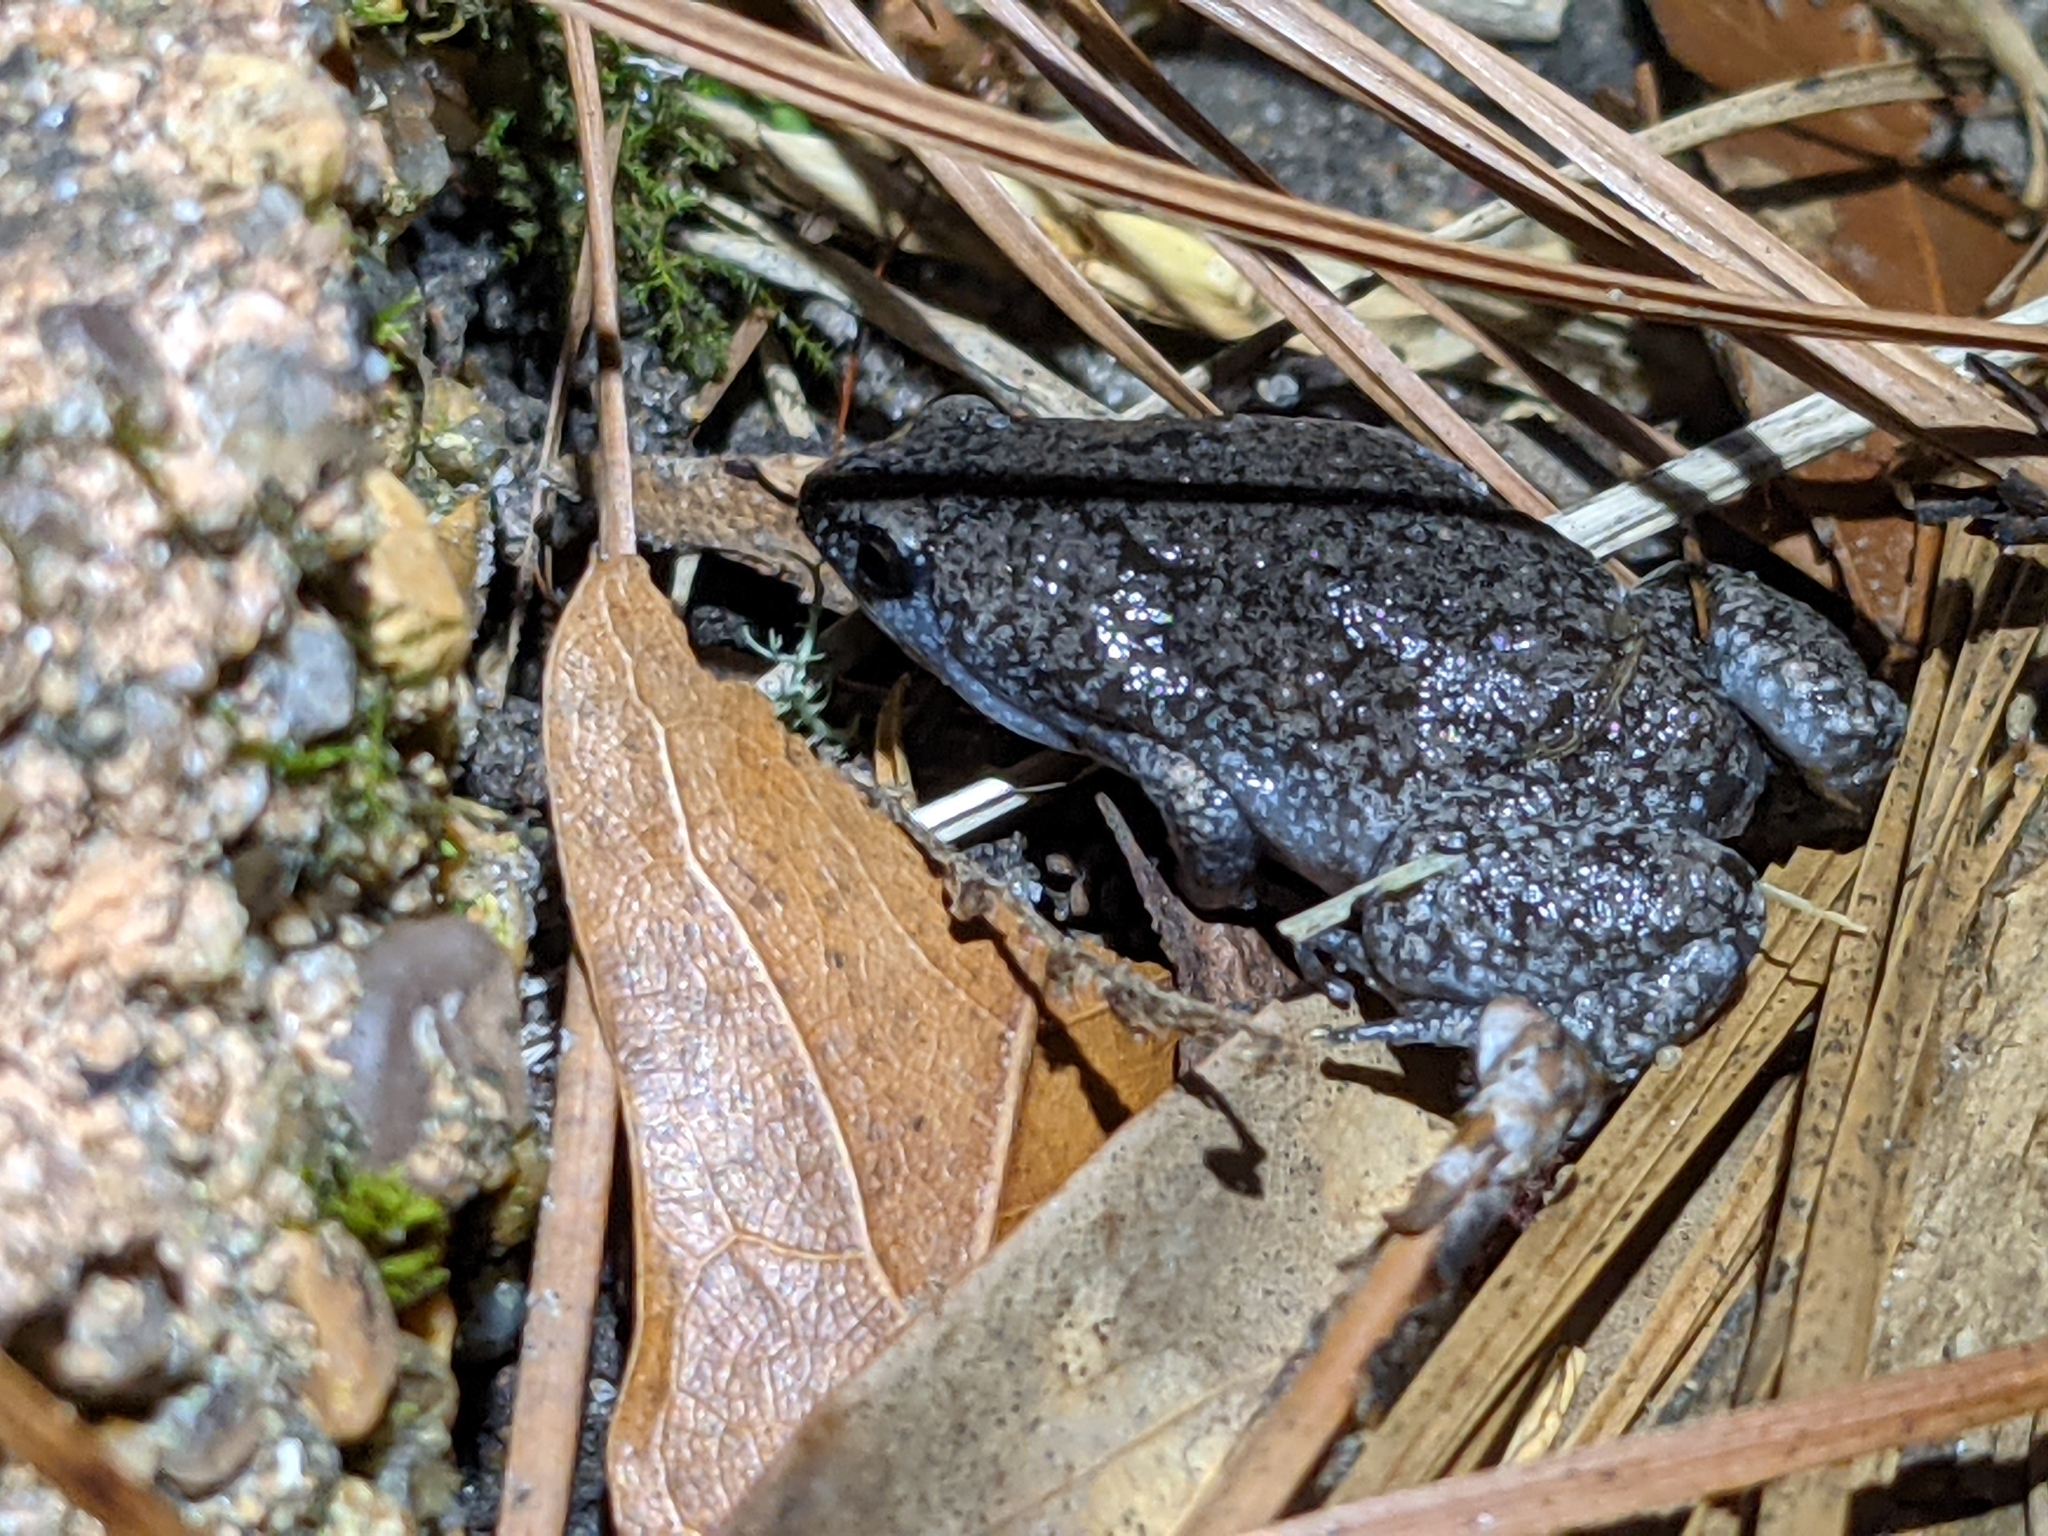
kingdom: Animalia
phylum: Chordata
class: Amphibia
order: Anura
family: Microhylidae
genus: Gastrophryne
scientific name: Gastrophryne carolinensis
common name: Eastern narrowmouth toad
